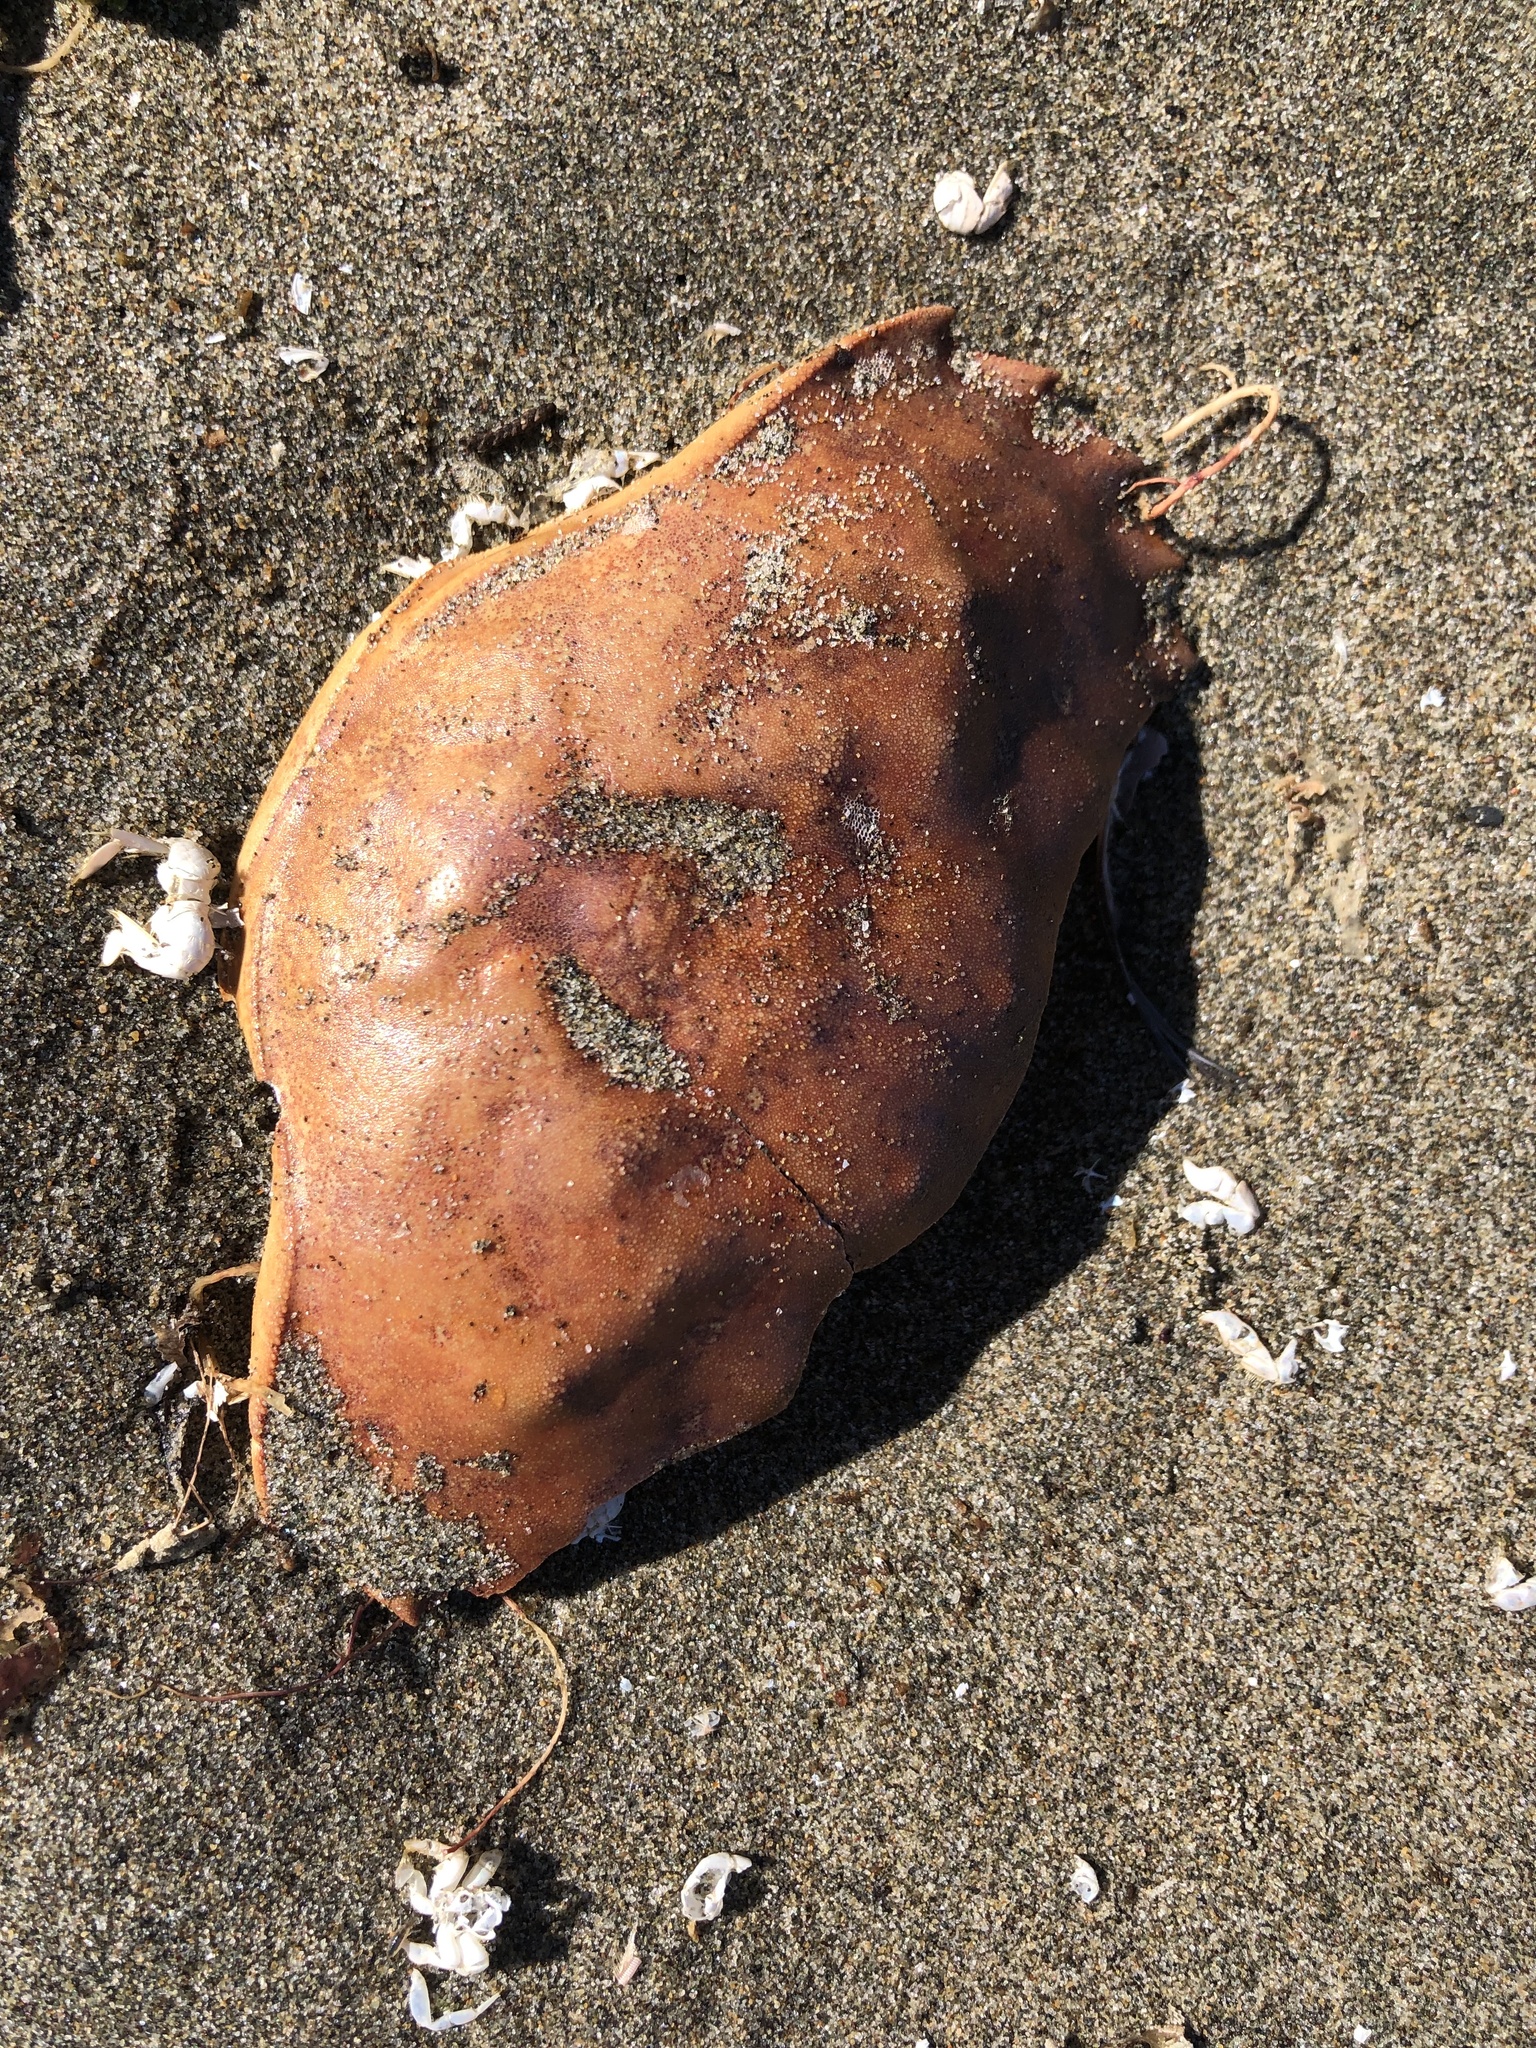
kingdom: Animalia
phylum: Arthropoda
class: Malacostraca
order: Decapoda
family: Cancridae
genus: Metacarcinus
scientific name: Metacarcinus magister
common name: Californian crab
